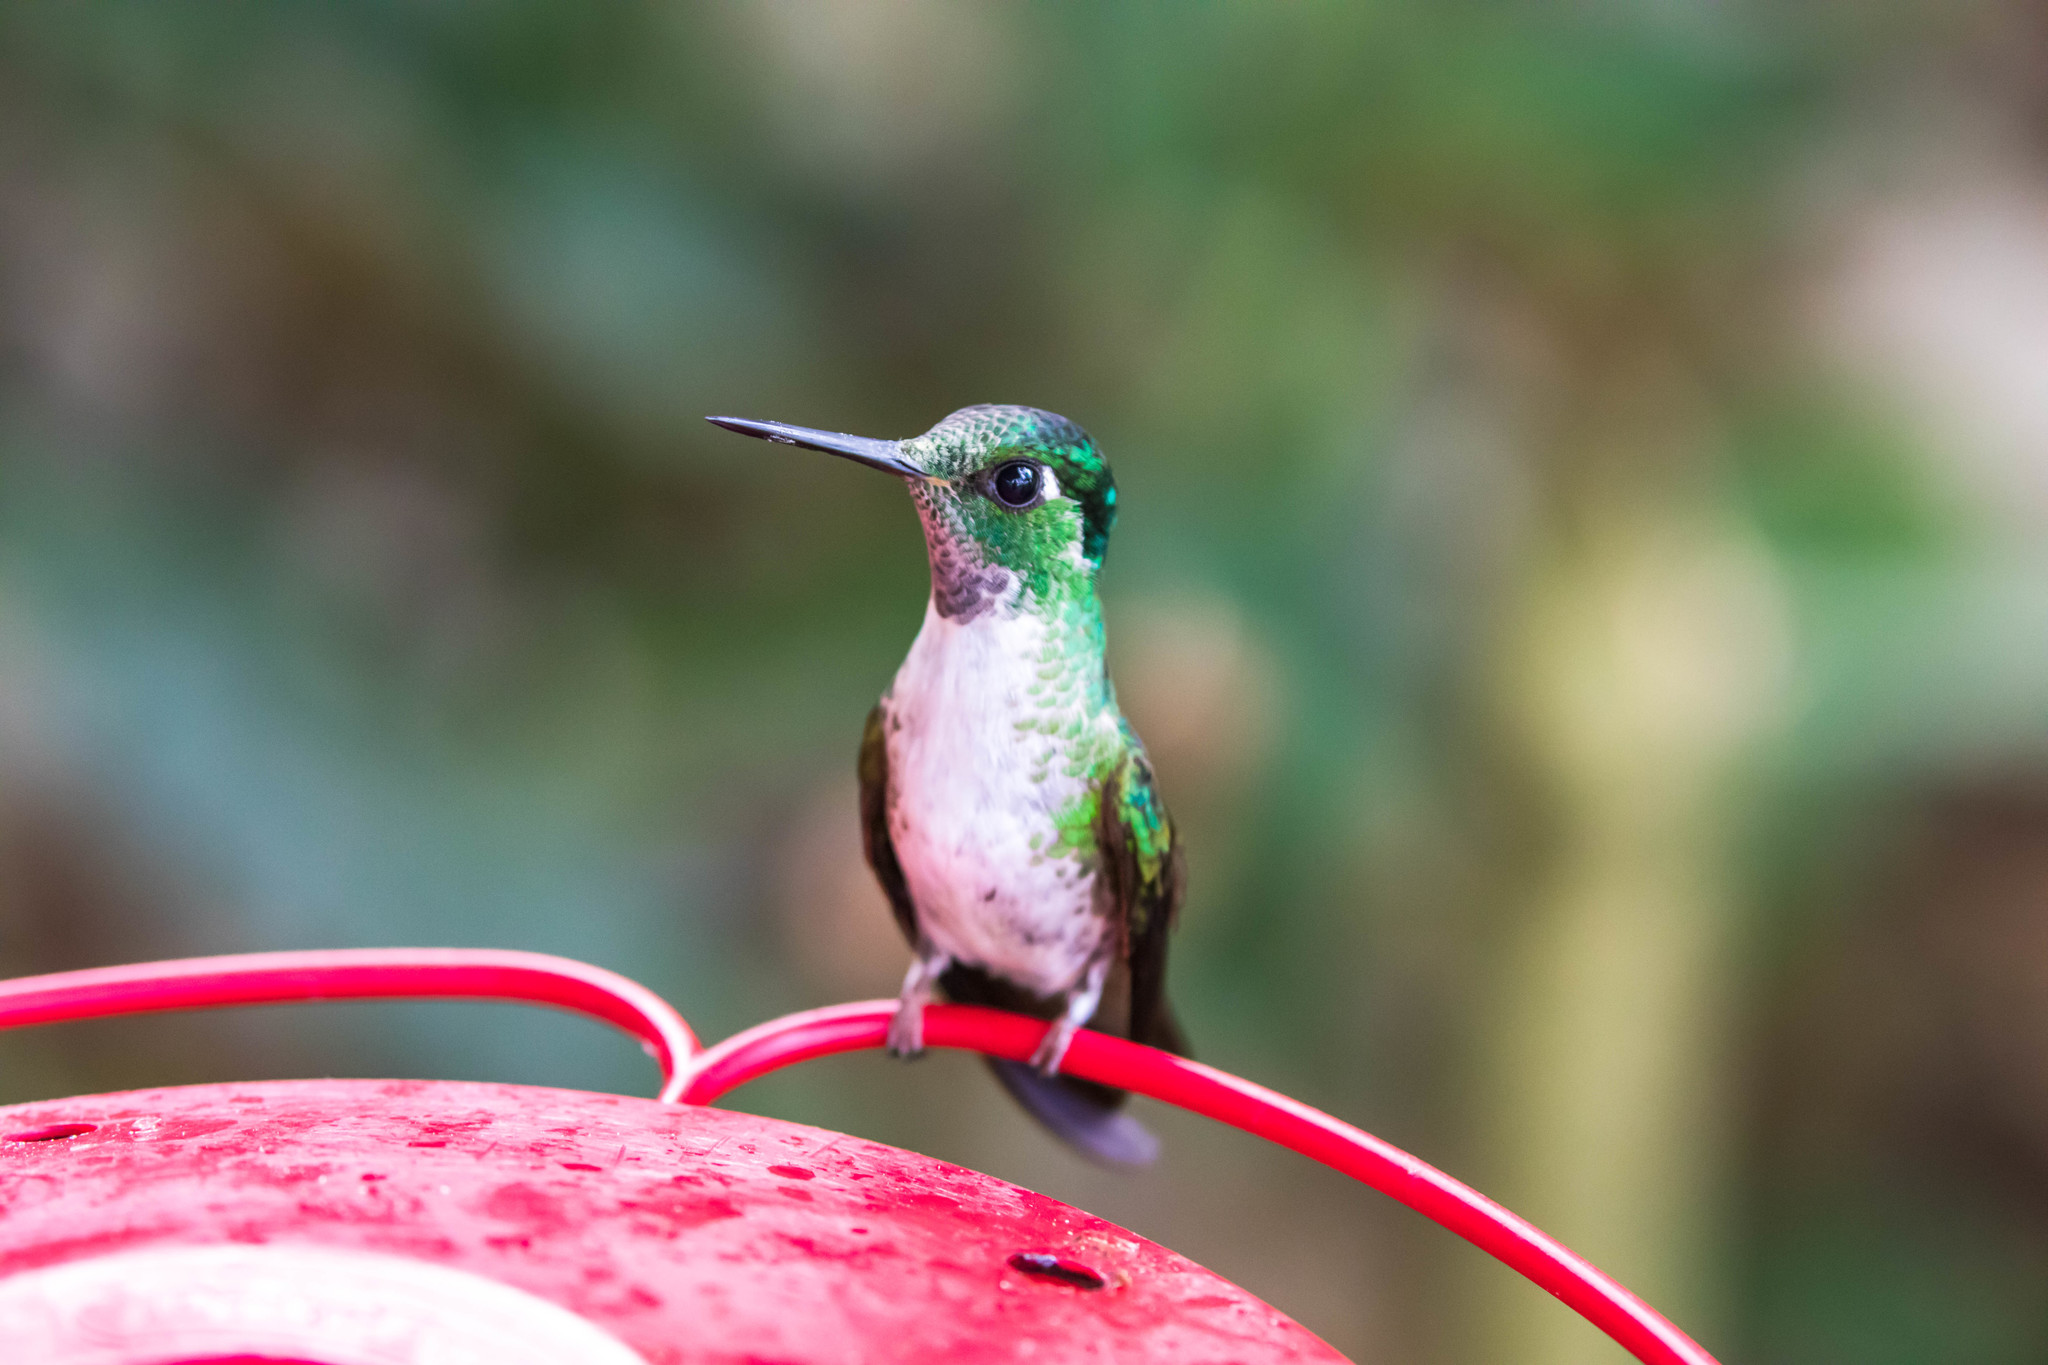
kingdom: Animalia
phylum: Chordata
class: Aves
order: Apodiformes
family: Trochilidae
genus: Lampornis
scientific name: Lampornis hemileucus
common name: White-bellied mountain-gem
